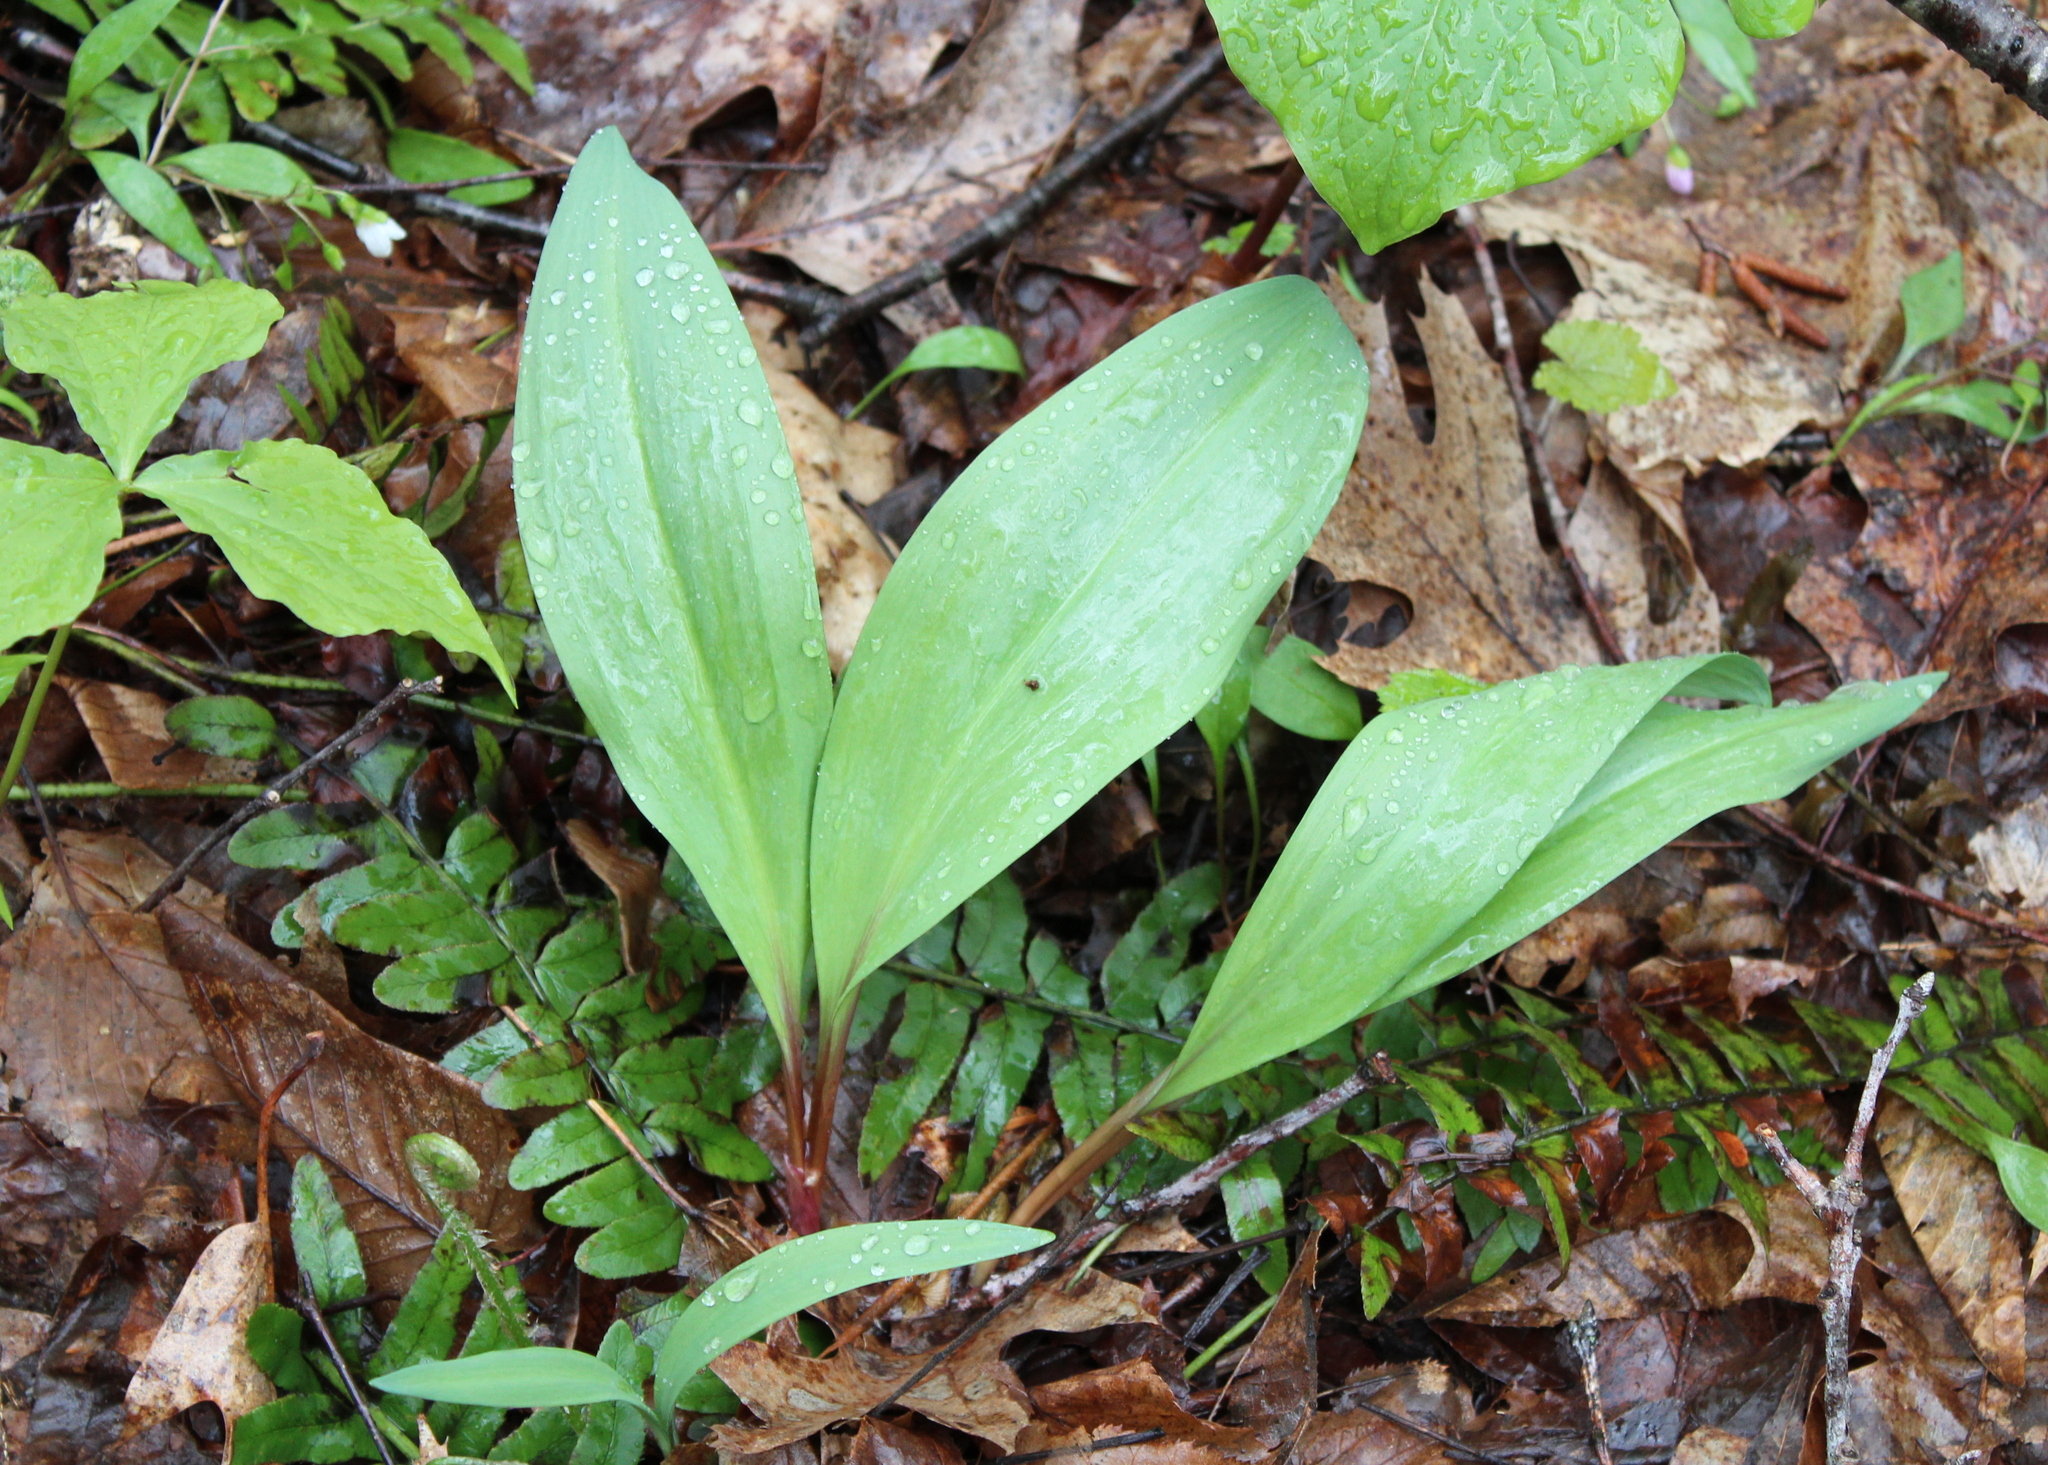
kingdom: Plantae
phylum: Tracheophyta
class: Liliopsida
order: Asparagales
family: Amaryllidaceae
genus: Allium
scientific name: Allium tricoccum
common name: Ramp
